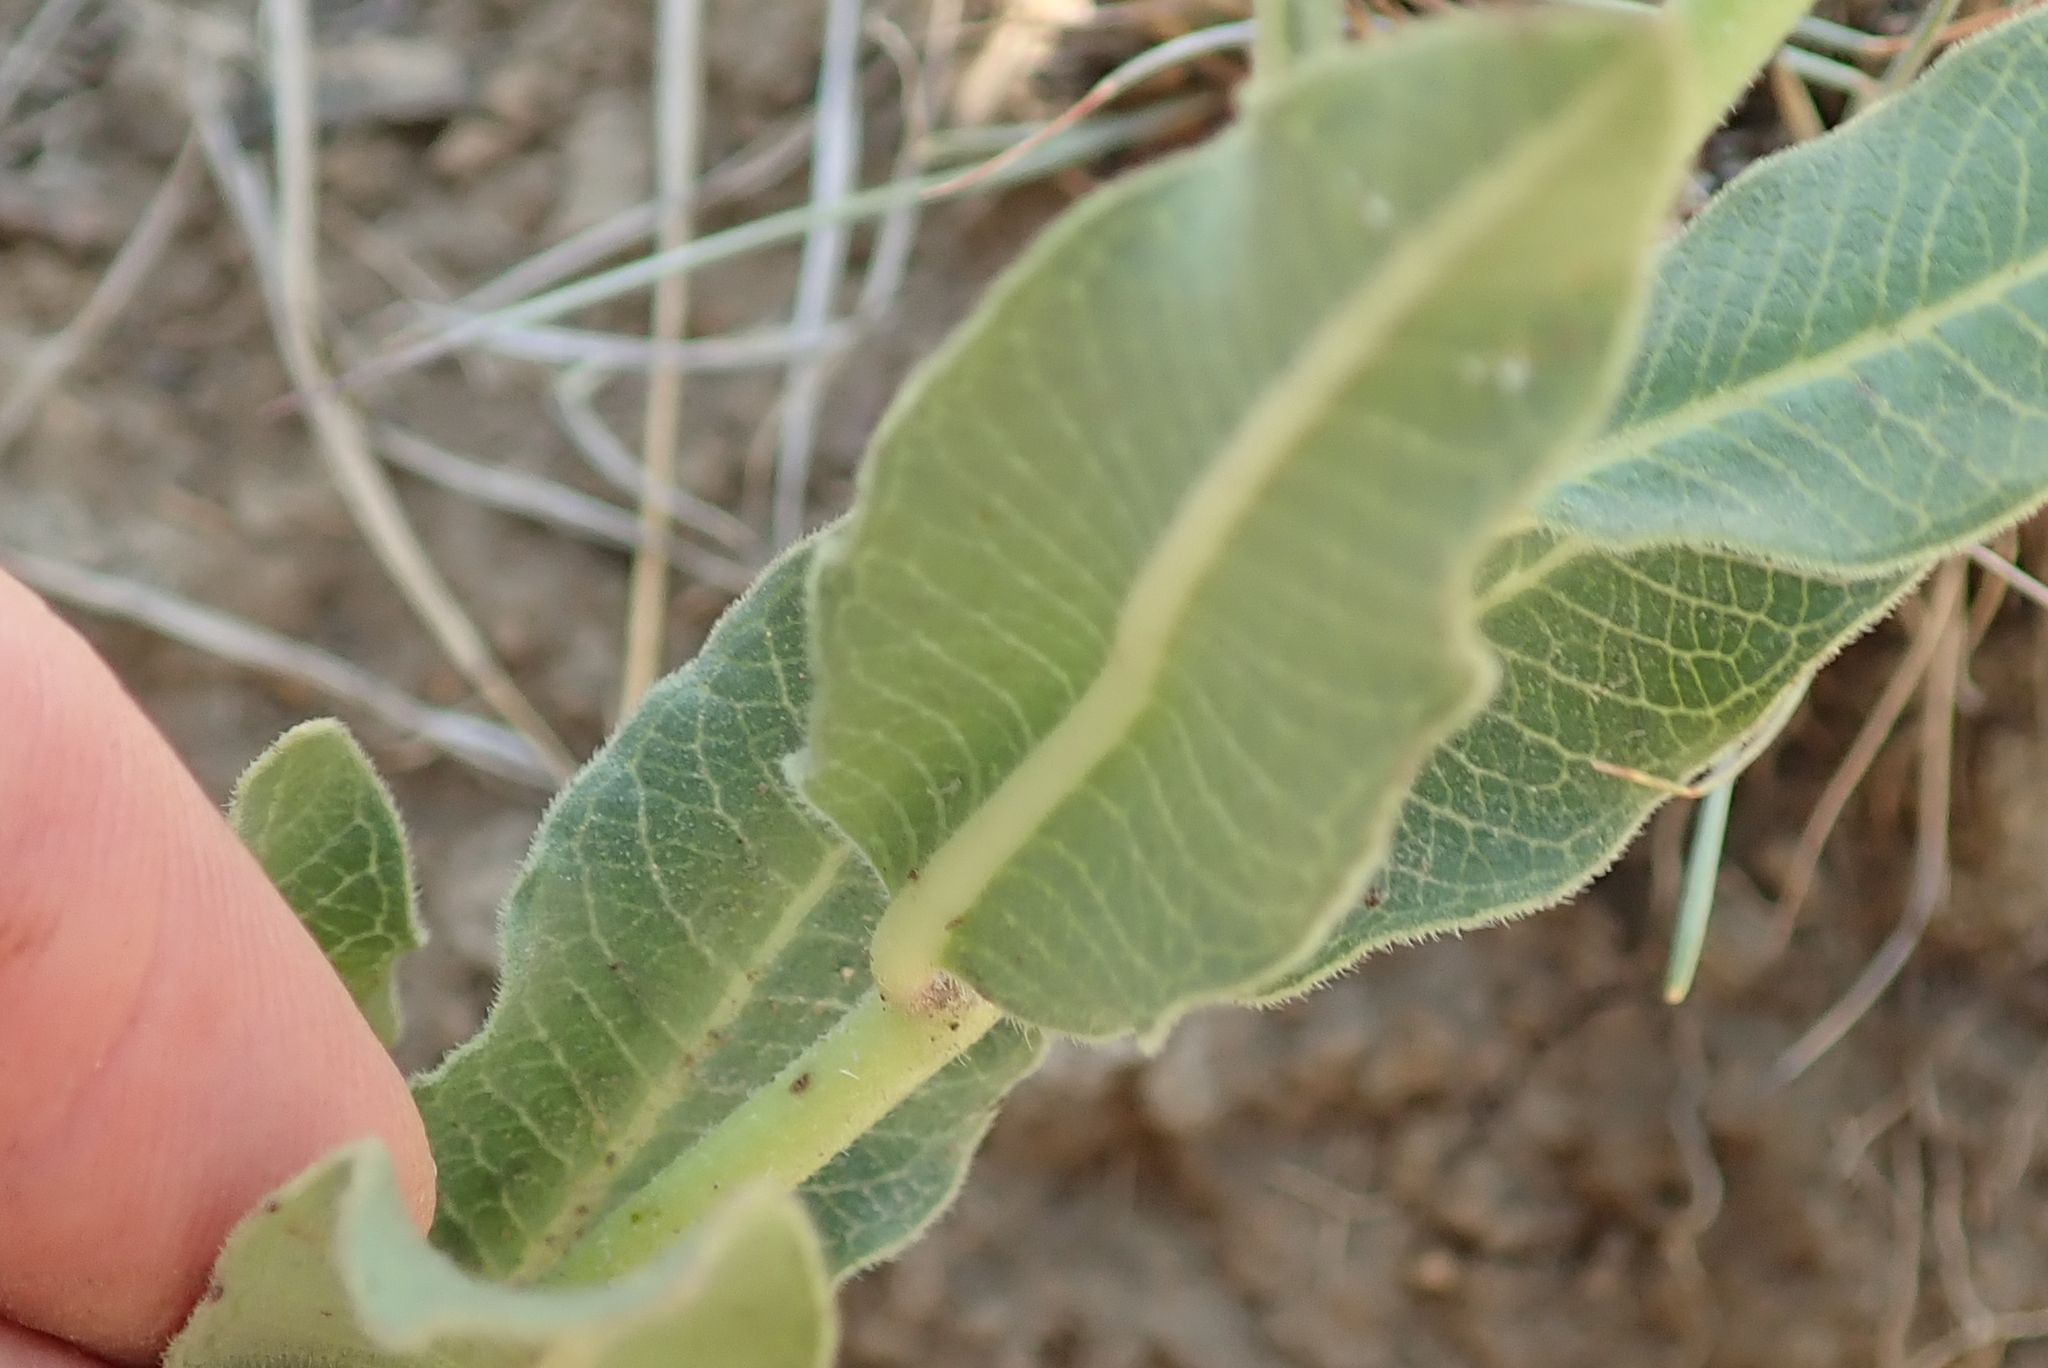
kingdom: Plantae
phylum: Tracheophyta
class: Magnoliopsida
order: Gentianales
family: Apocynaceae
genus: Pachycarpus
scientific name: Pachycarpus dealbatus
